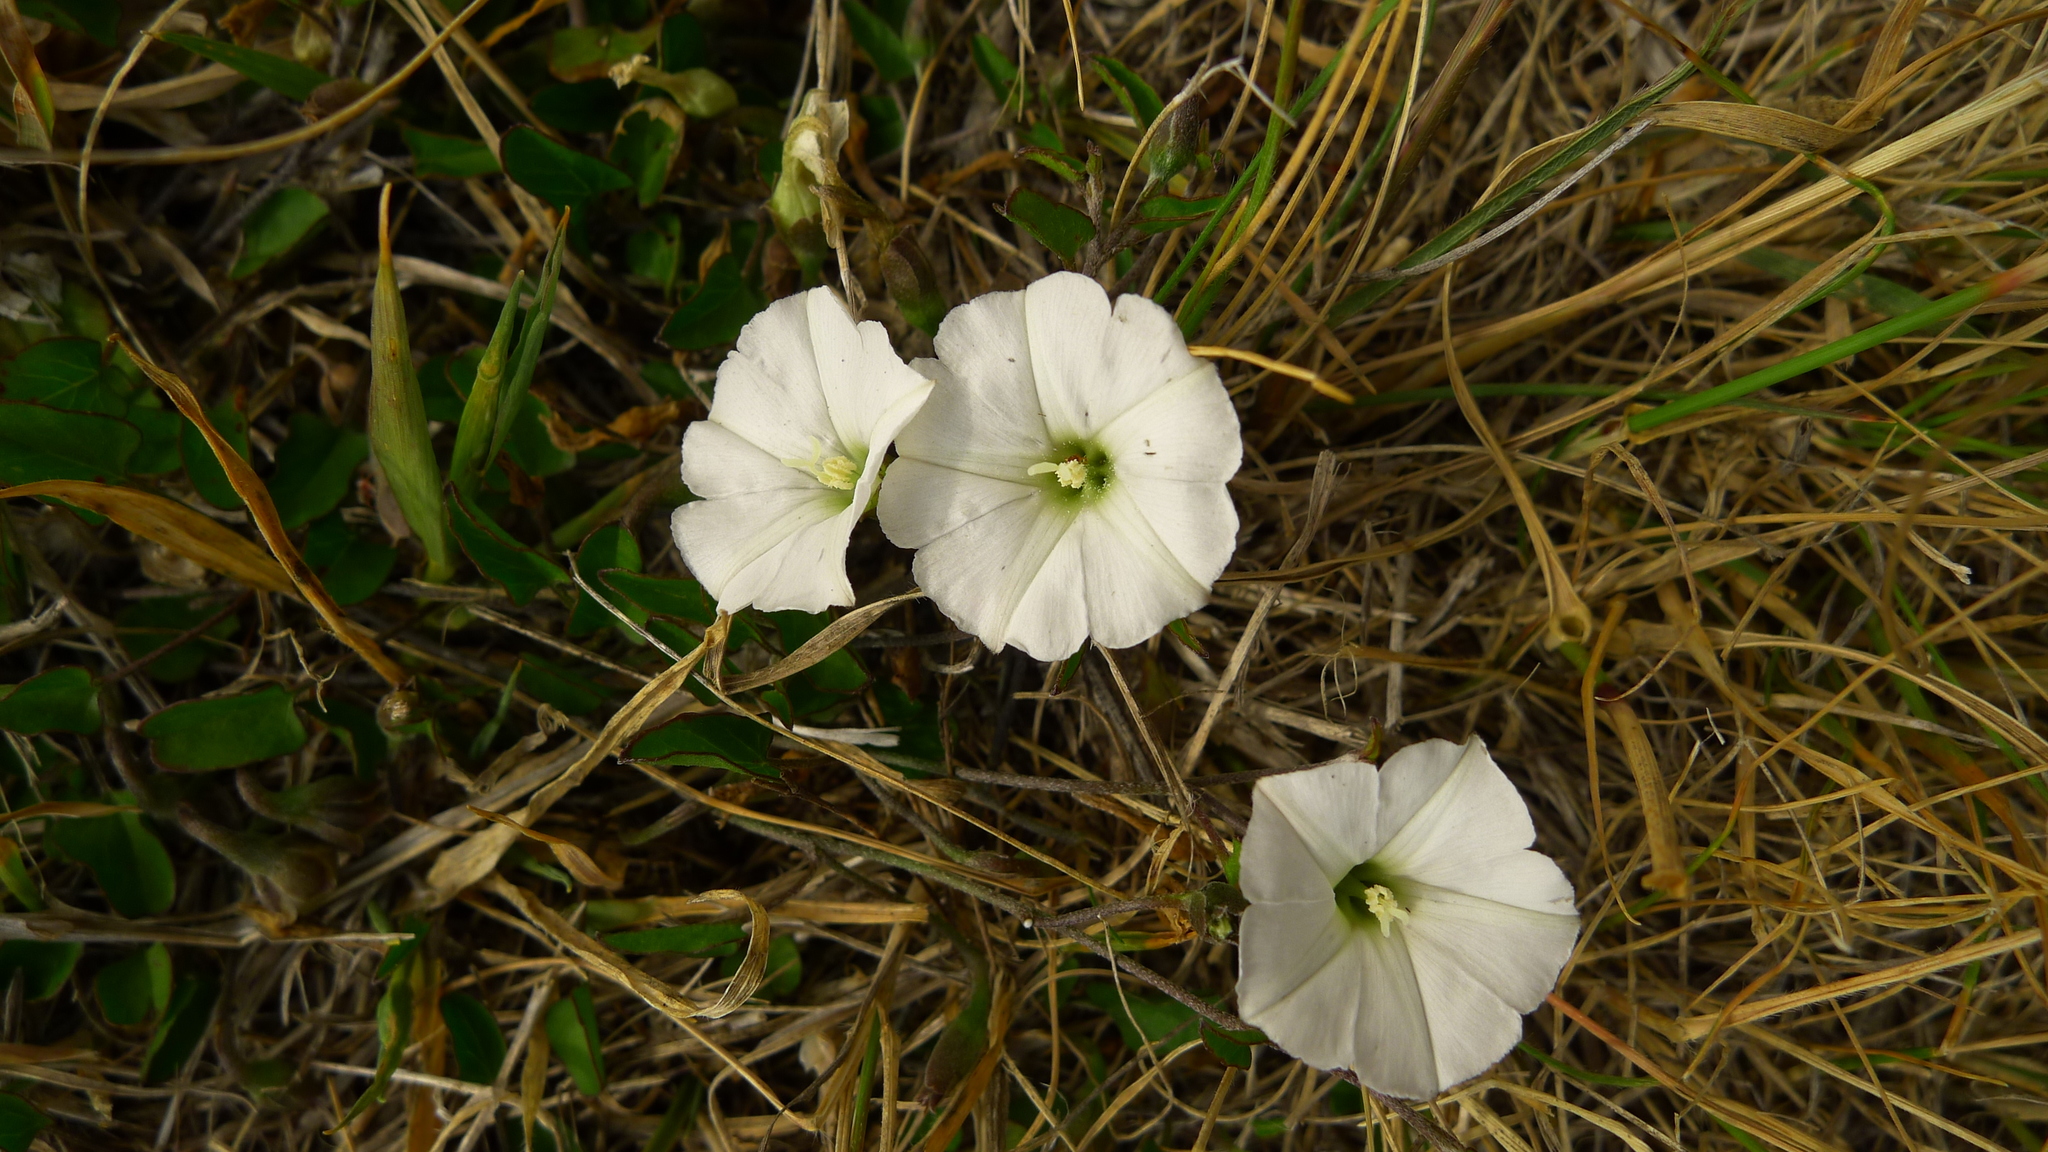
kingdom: Plantae
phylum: Tracheophyta
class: Magnoliopsida
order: Solanales
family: Convolvulaceae
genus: Convolvulus
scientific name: Convolvulus waitaha
